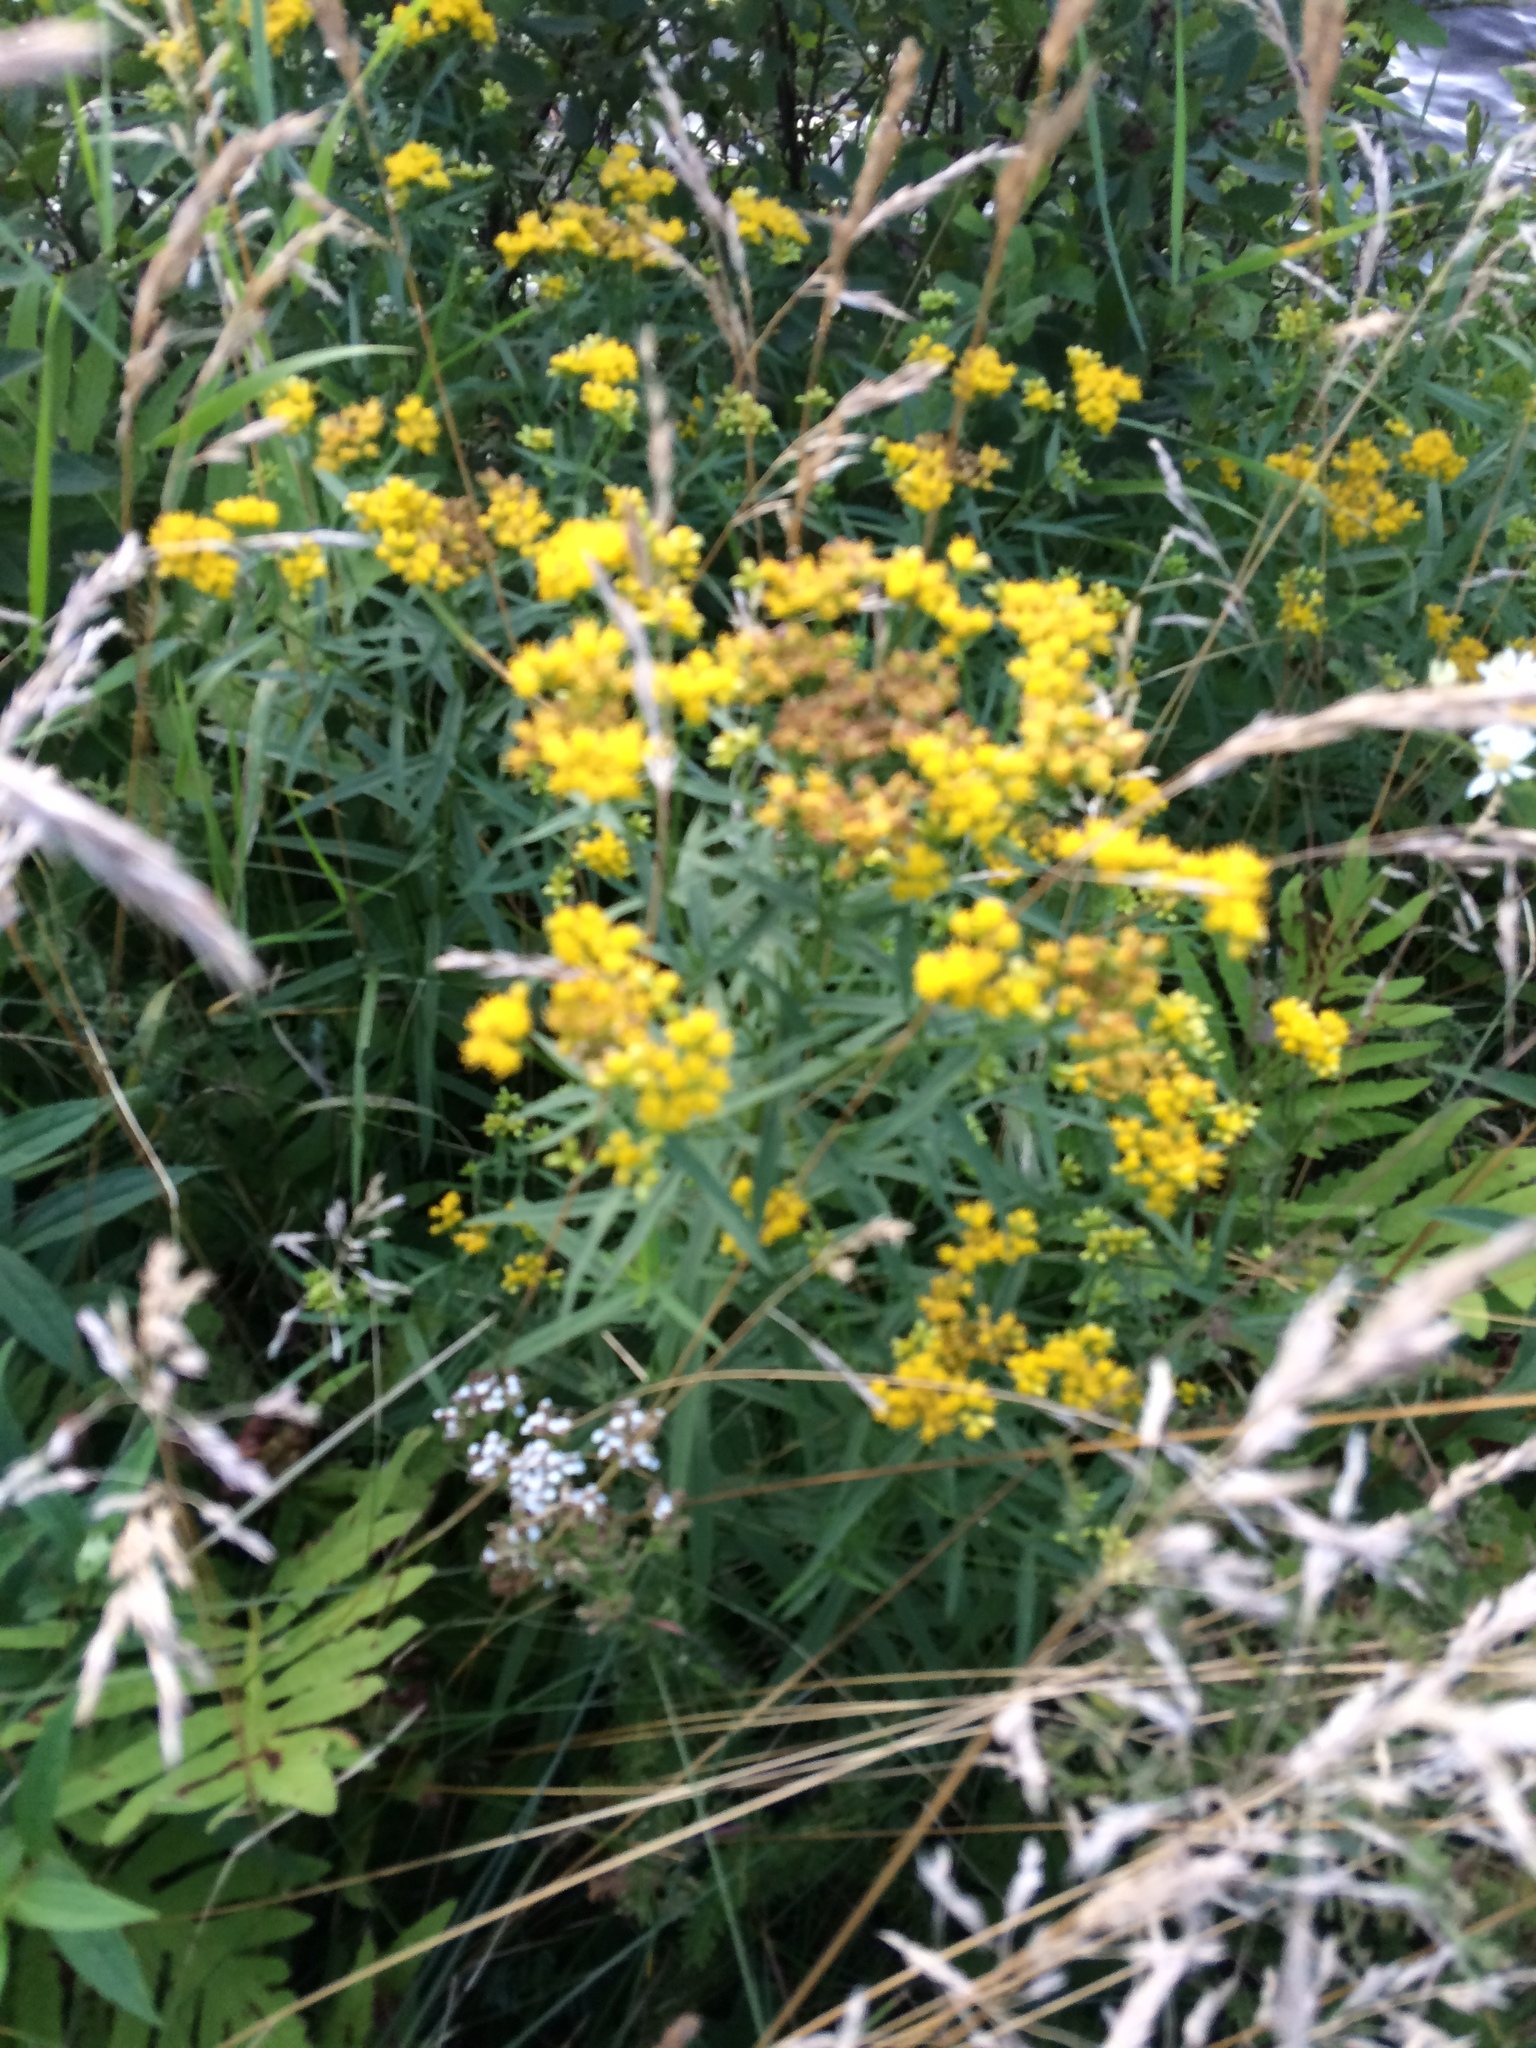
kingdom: Plantae
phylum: Tracheophyta
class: Magnoliopsida
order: Asterales
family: Asteraceae
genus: Euthamia
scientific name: Euthamia graminifolia
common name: Common goldentop
